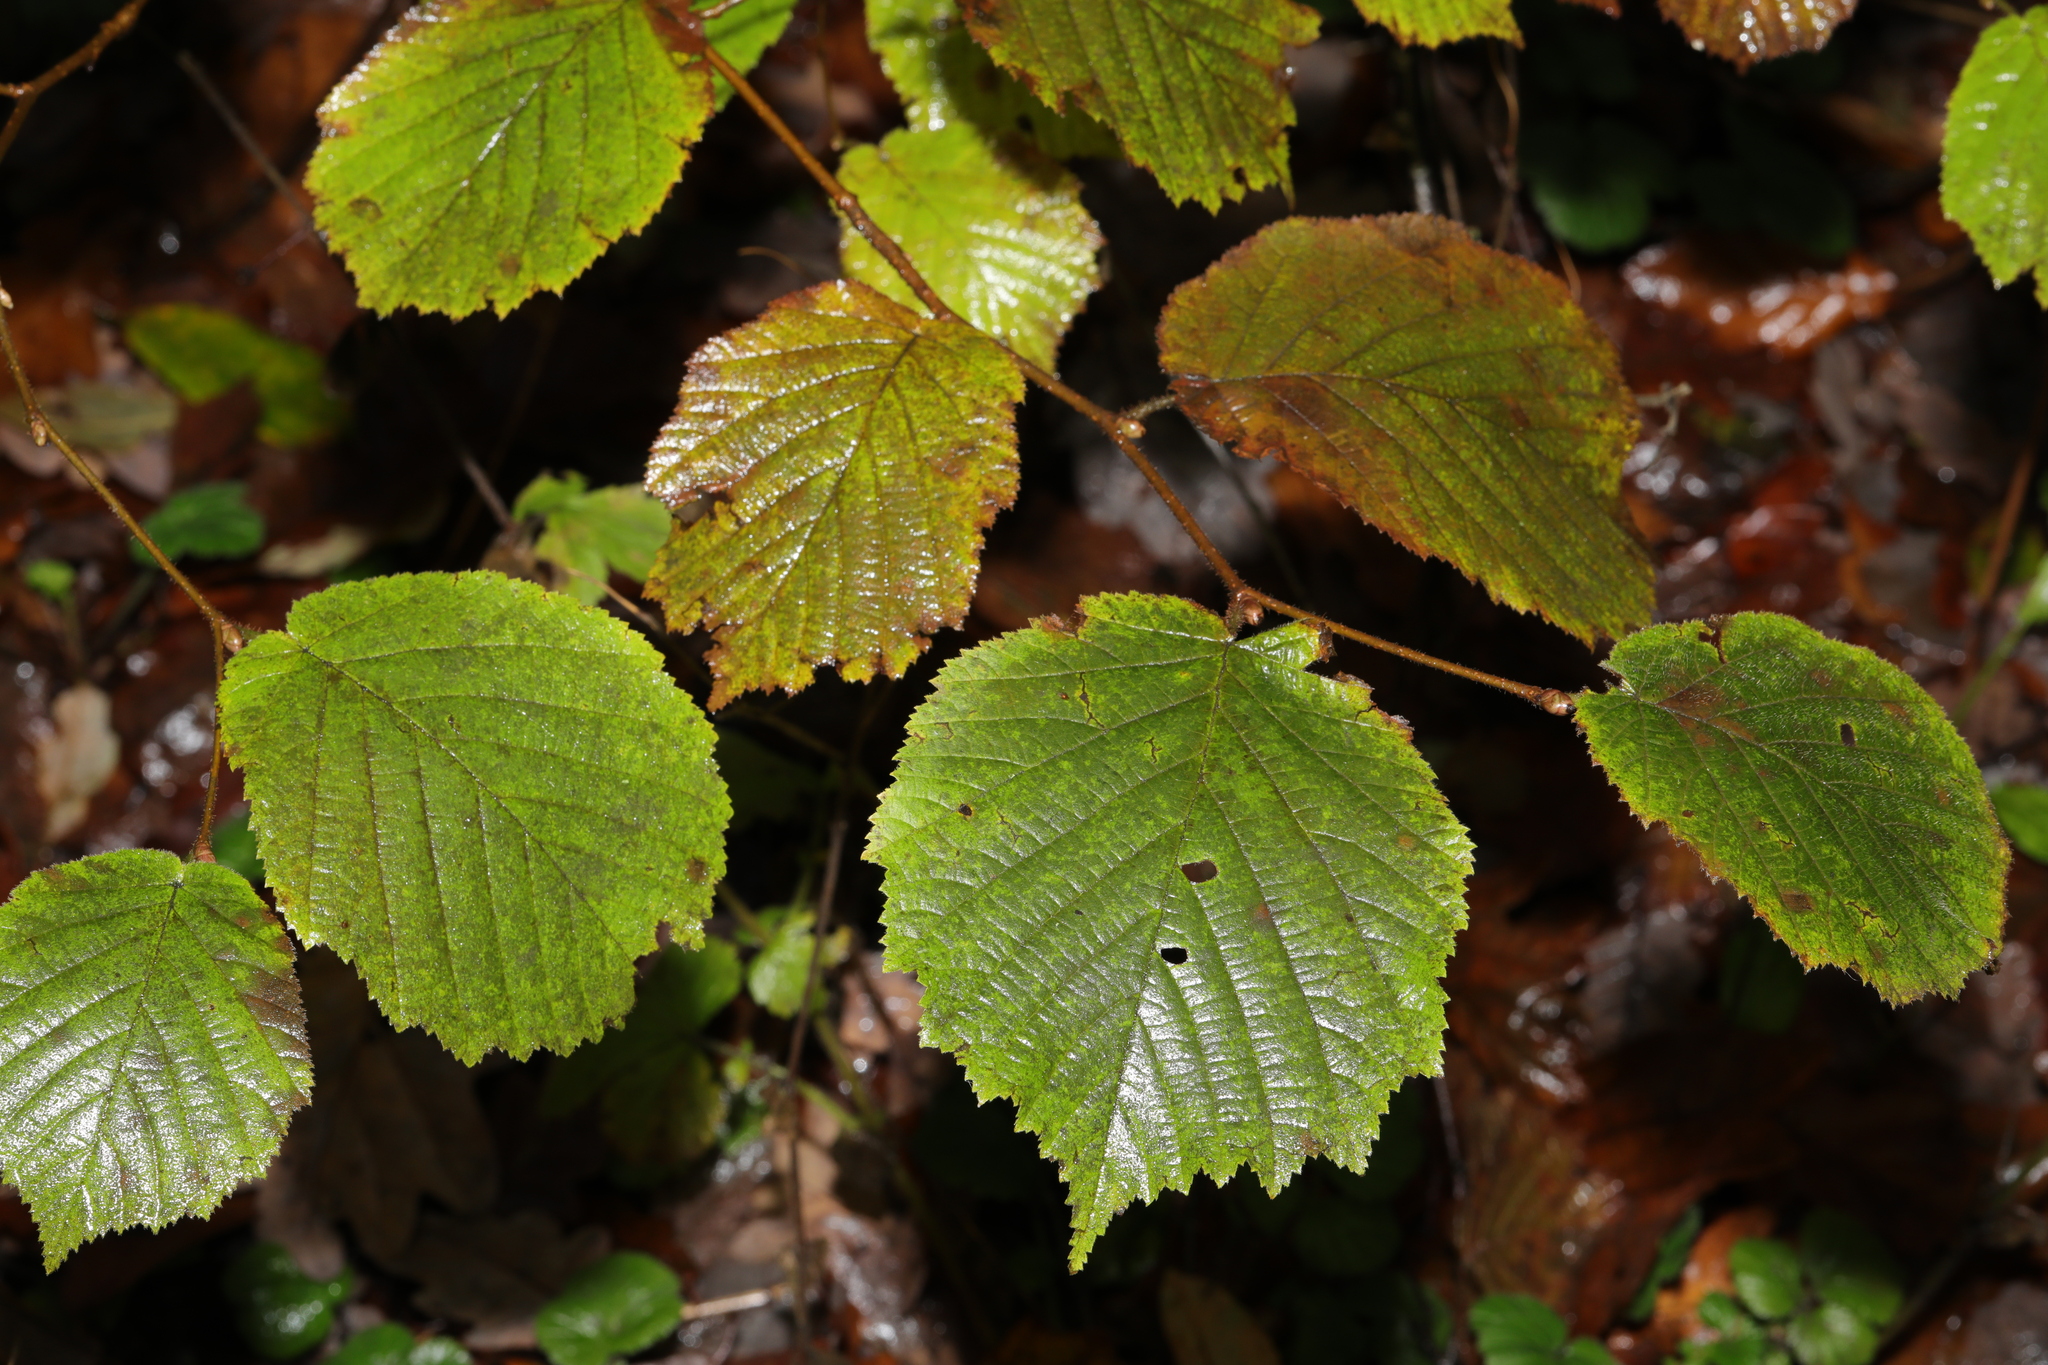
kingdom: Plantae
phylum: Tracheophyta
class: Magnoliopsida
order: Fagales
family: Betulaceae
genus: Corylus
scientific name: Corylus avellana
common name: European hazel
